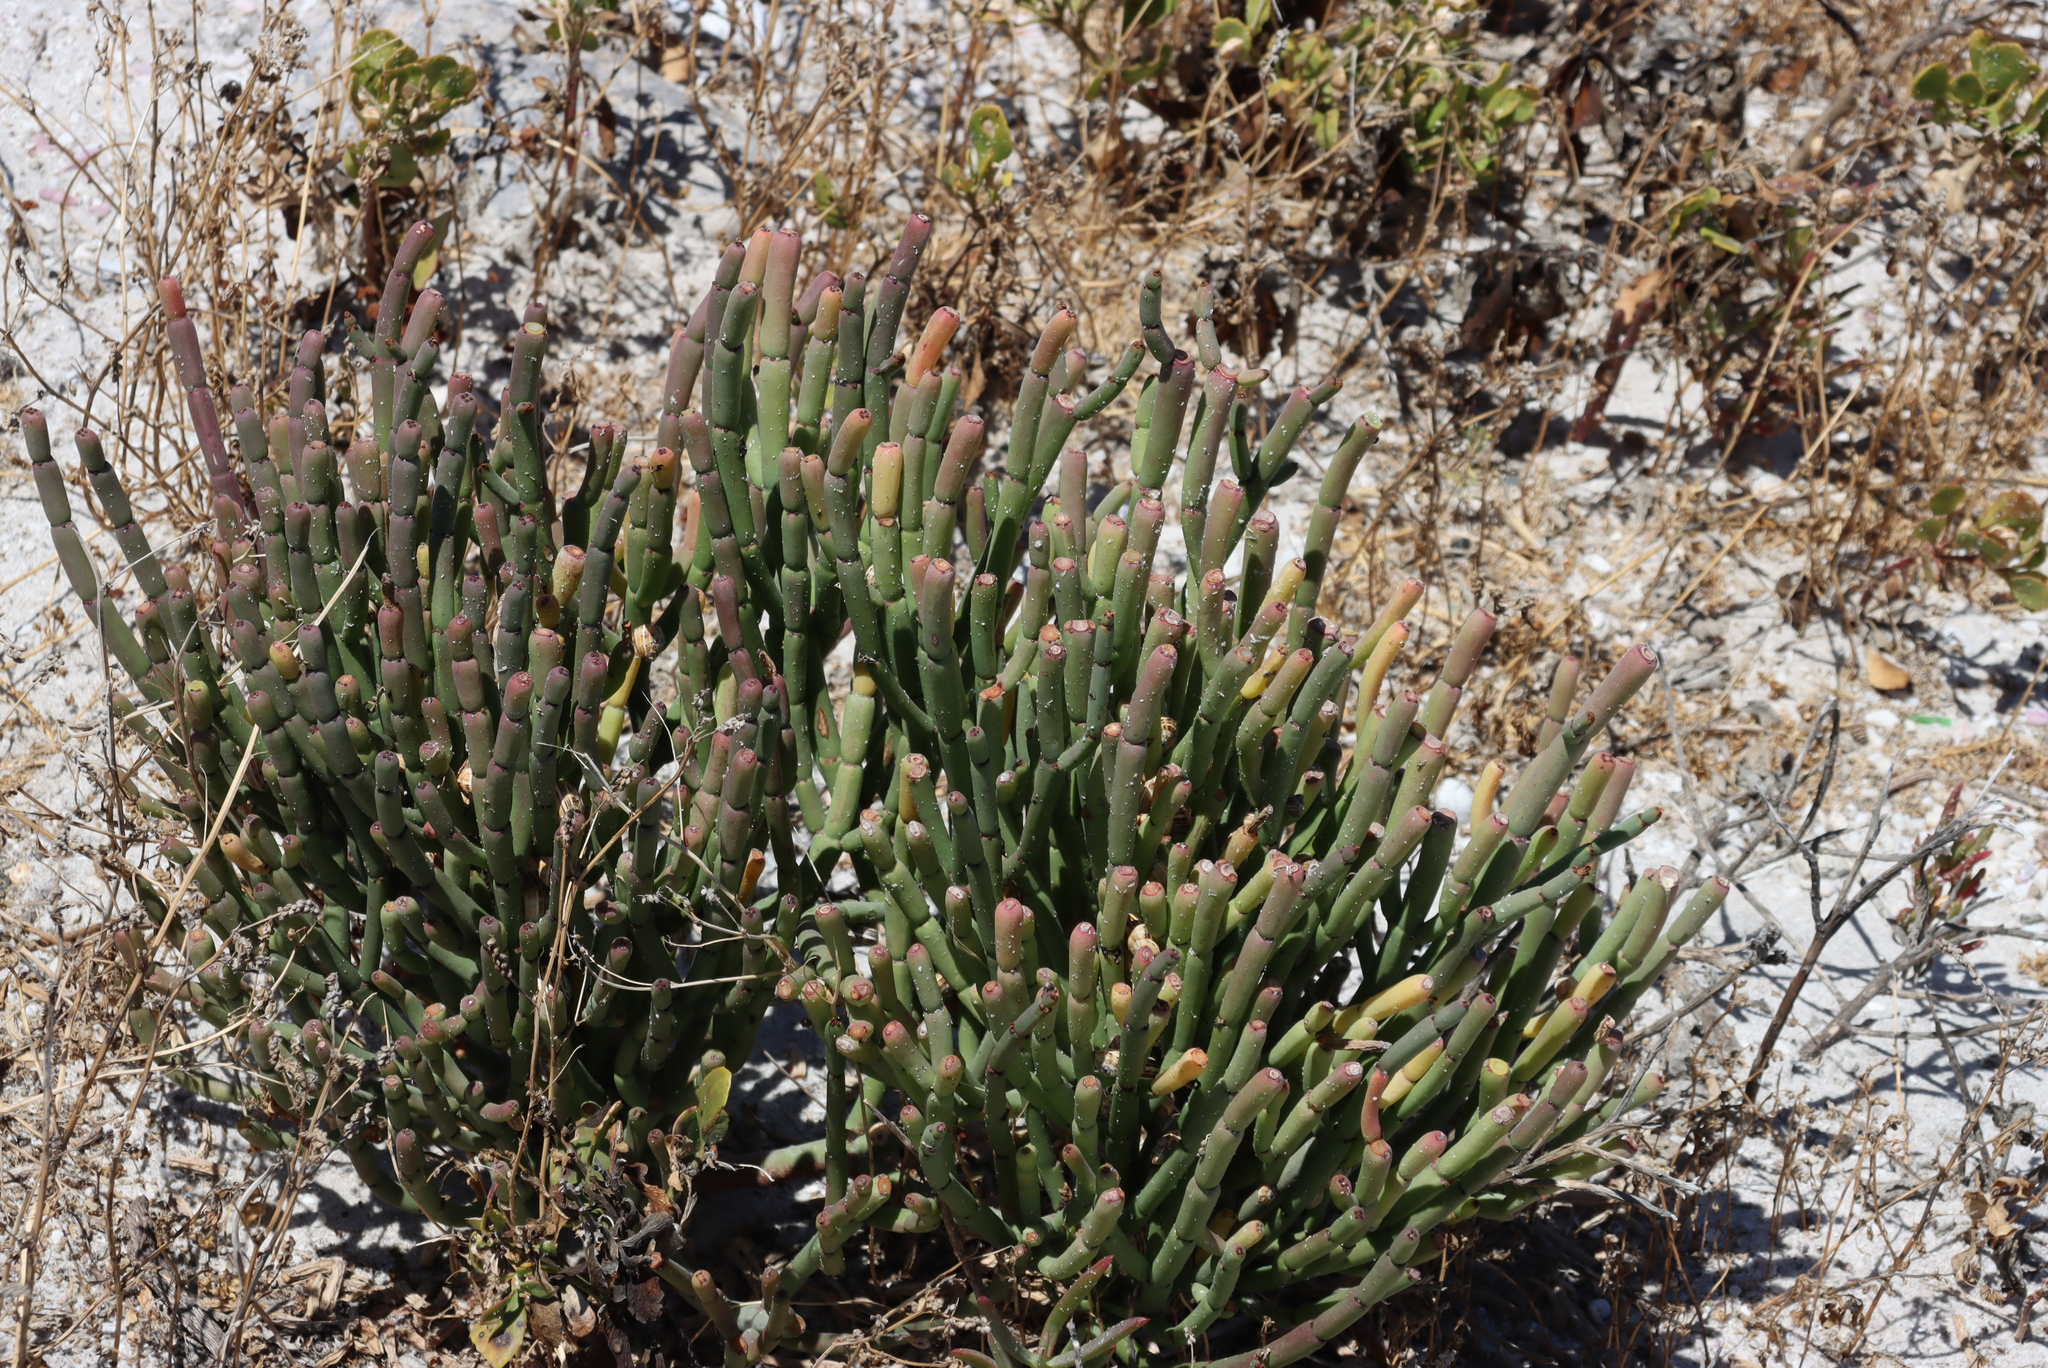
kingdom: Plantae
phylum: Tracheophyta
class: Magnoliopsida
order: Malpighiales
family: Euphorbiaceae
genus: Euphorbia
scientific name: Euphorbia burmanni
